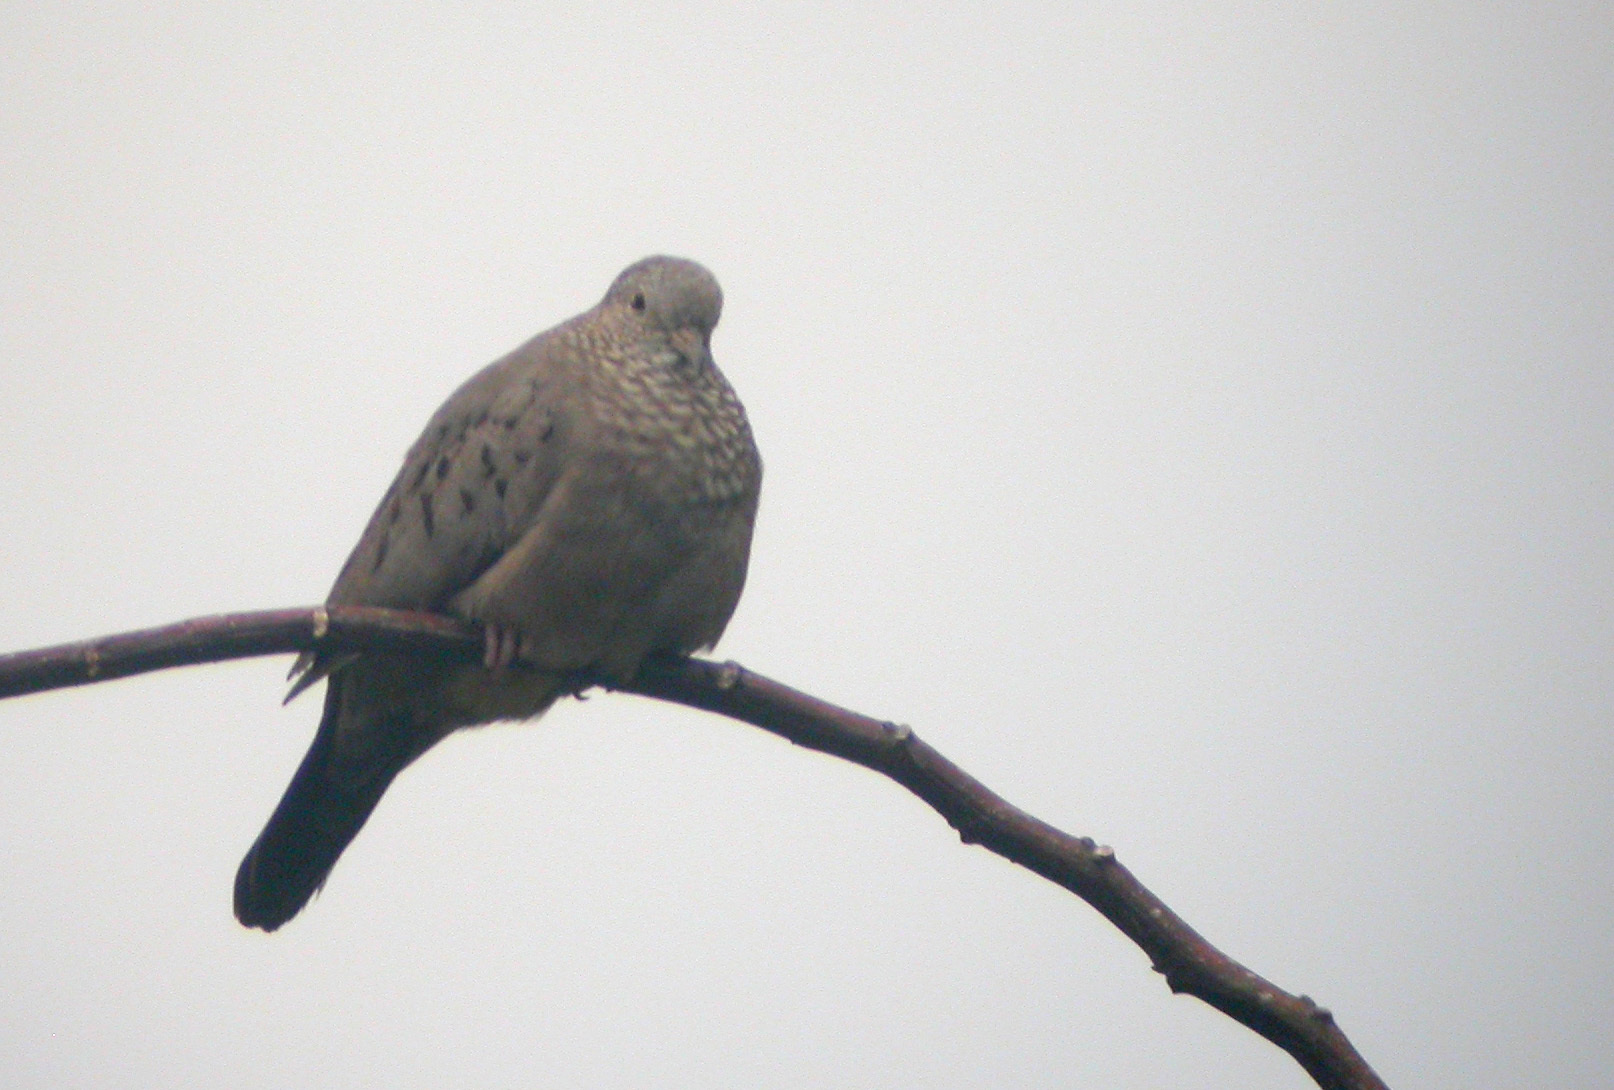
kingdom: Animalia
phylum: Chordata
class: Aves
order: Columbiformes
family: Columbidae
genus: Columbina
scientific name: Columbina passerina
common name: Common ground-dove
